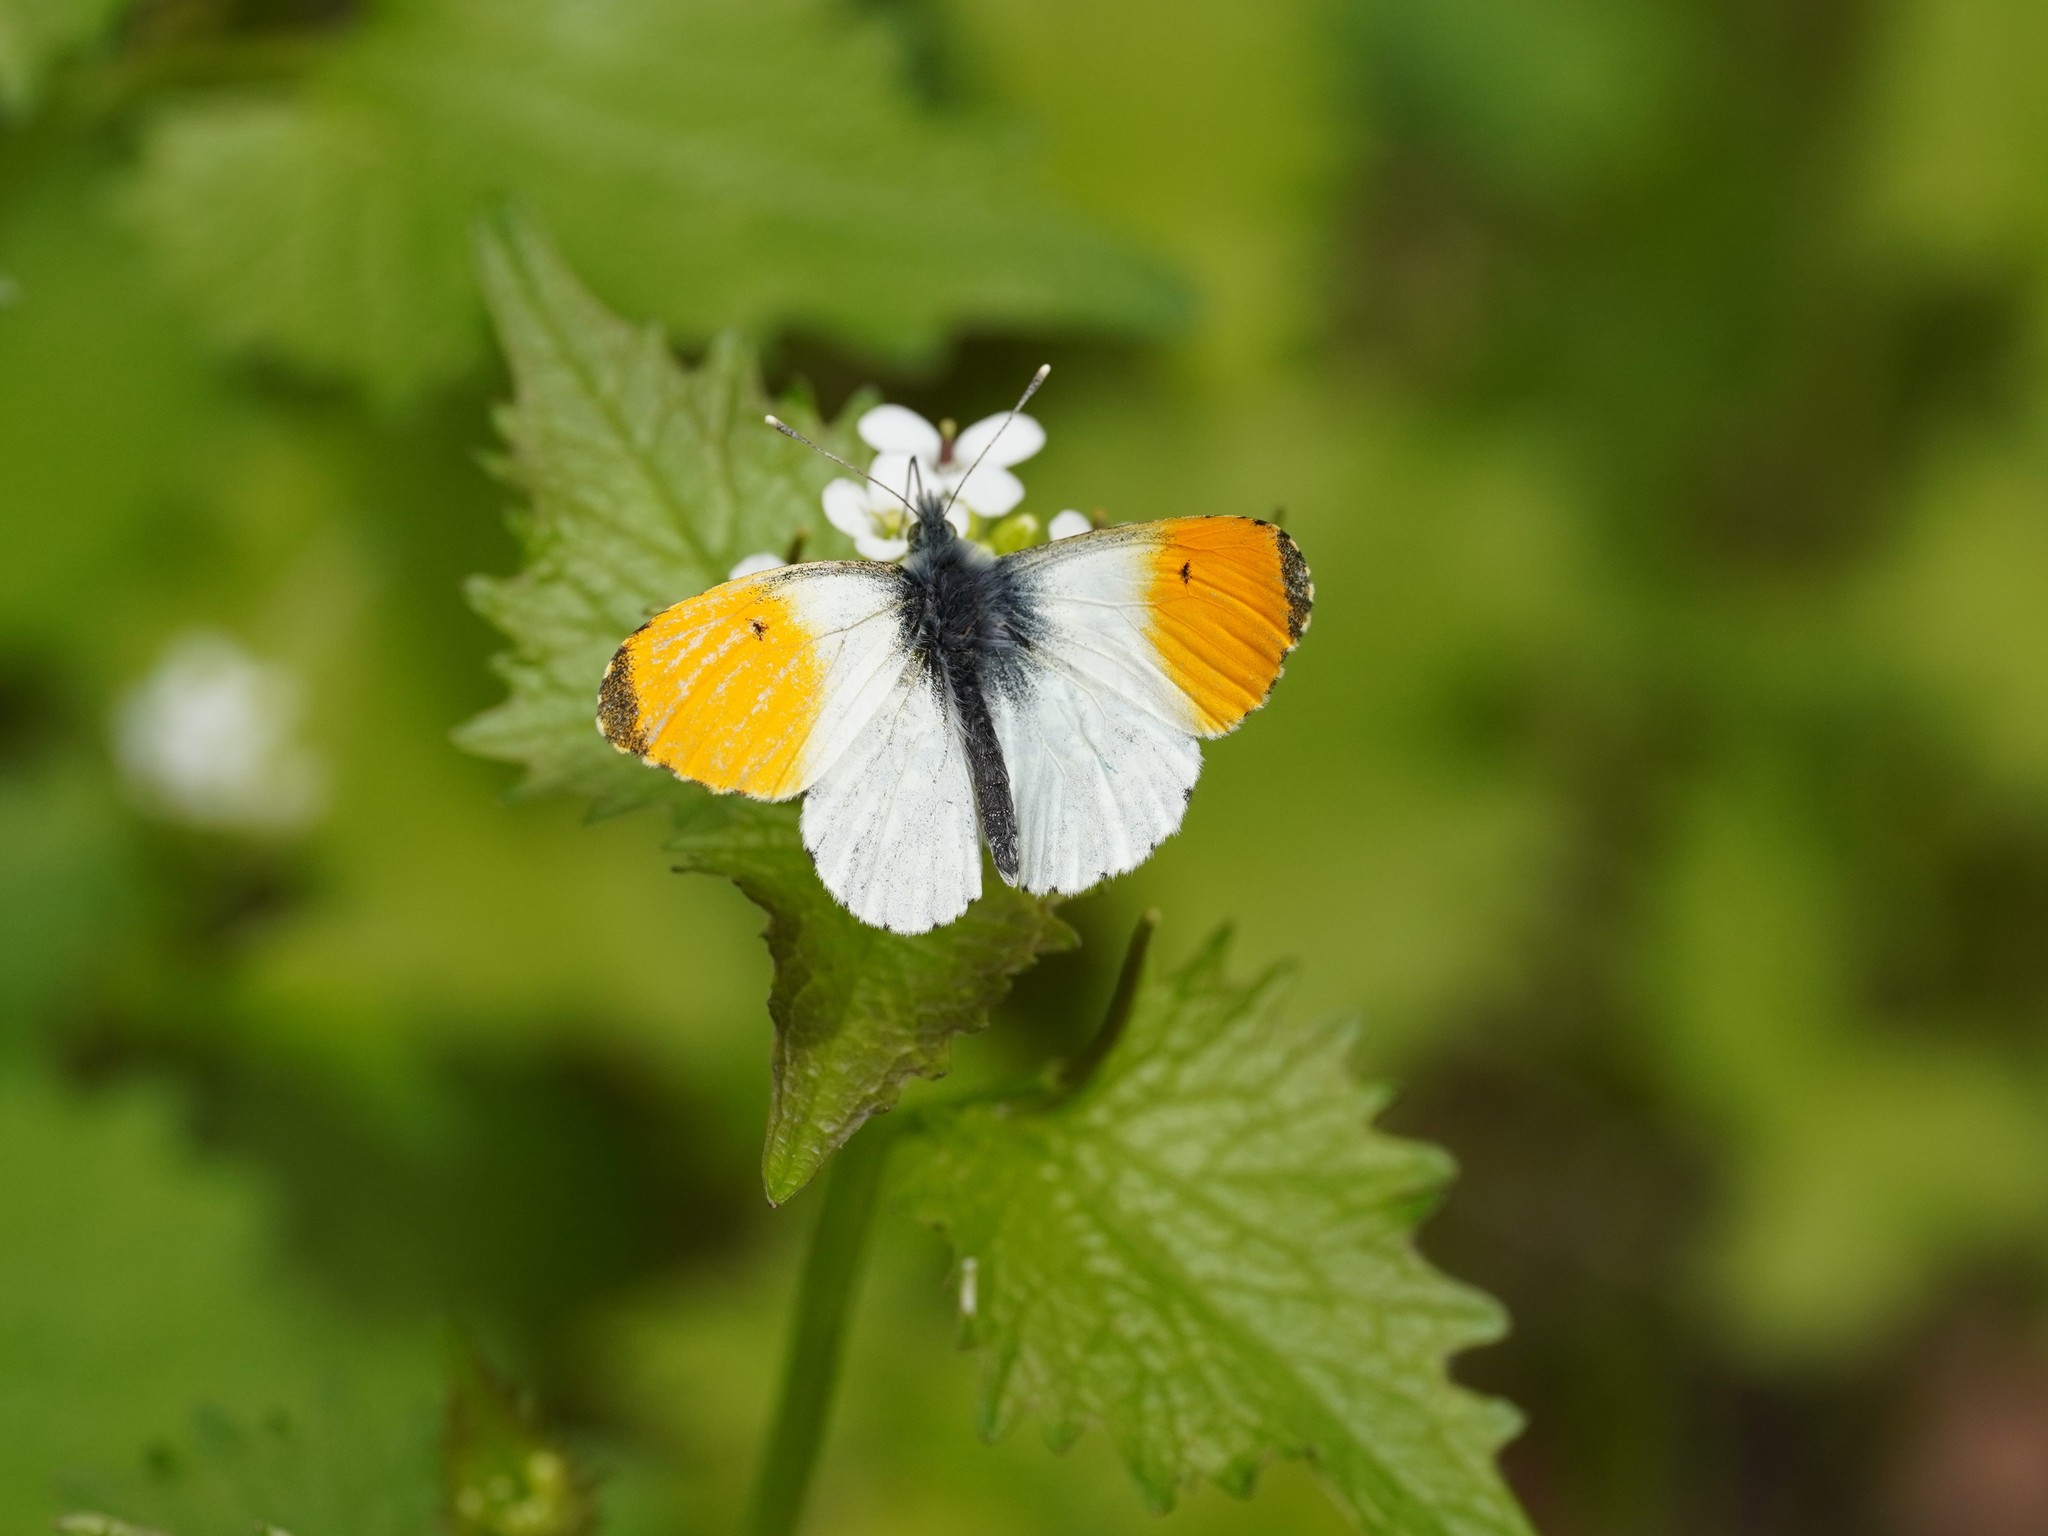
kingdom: Animalia
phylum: Arthropoda
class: Insecta
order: Lepidoptera
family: Pieridae
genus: Anthocharis
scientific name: Anthocharis cardamines
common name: Orange-tip
